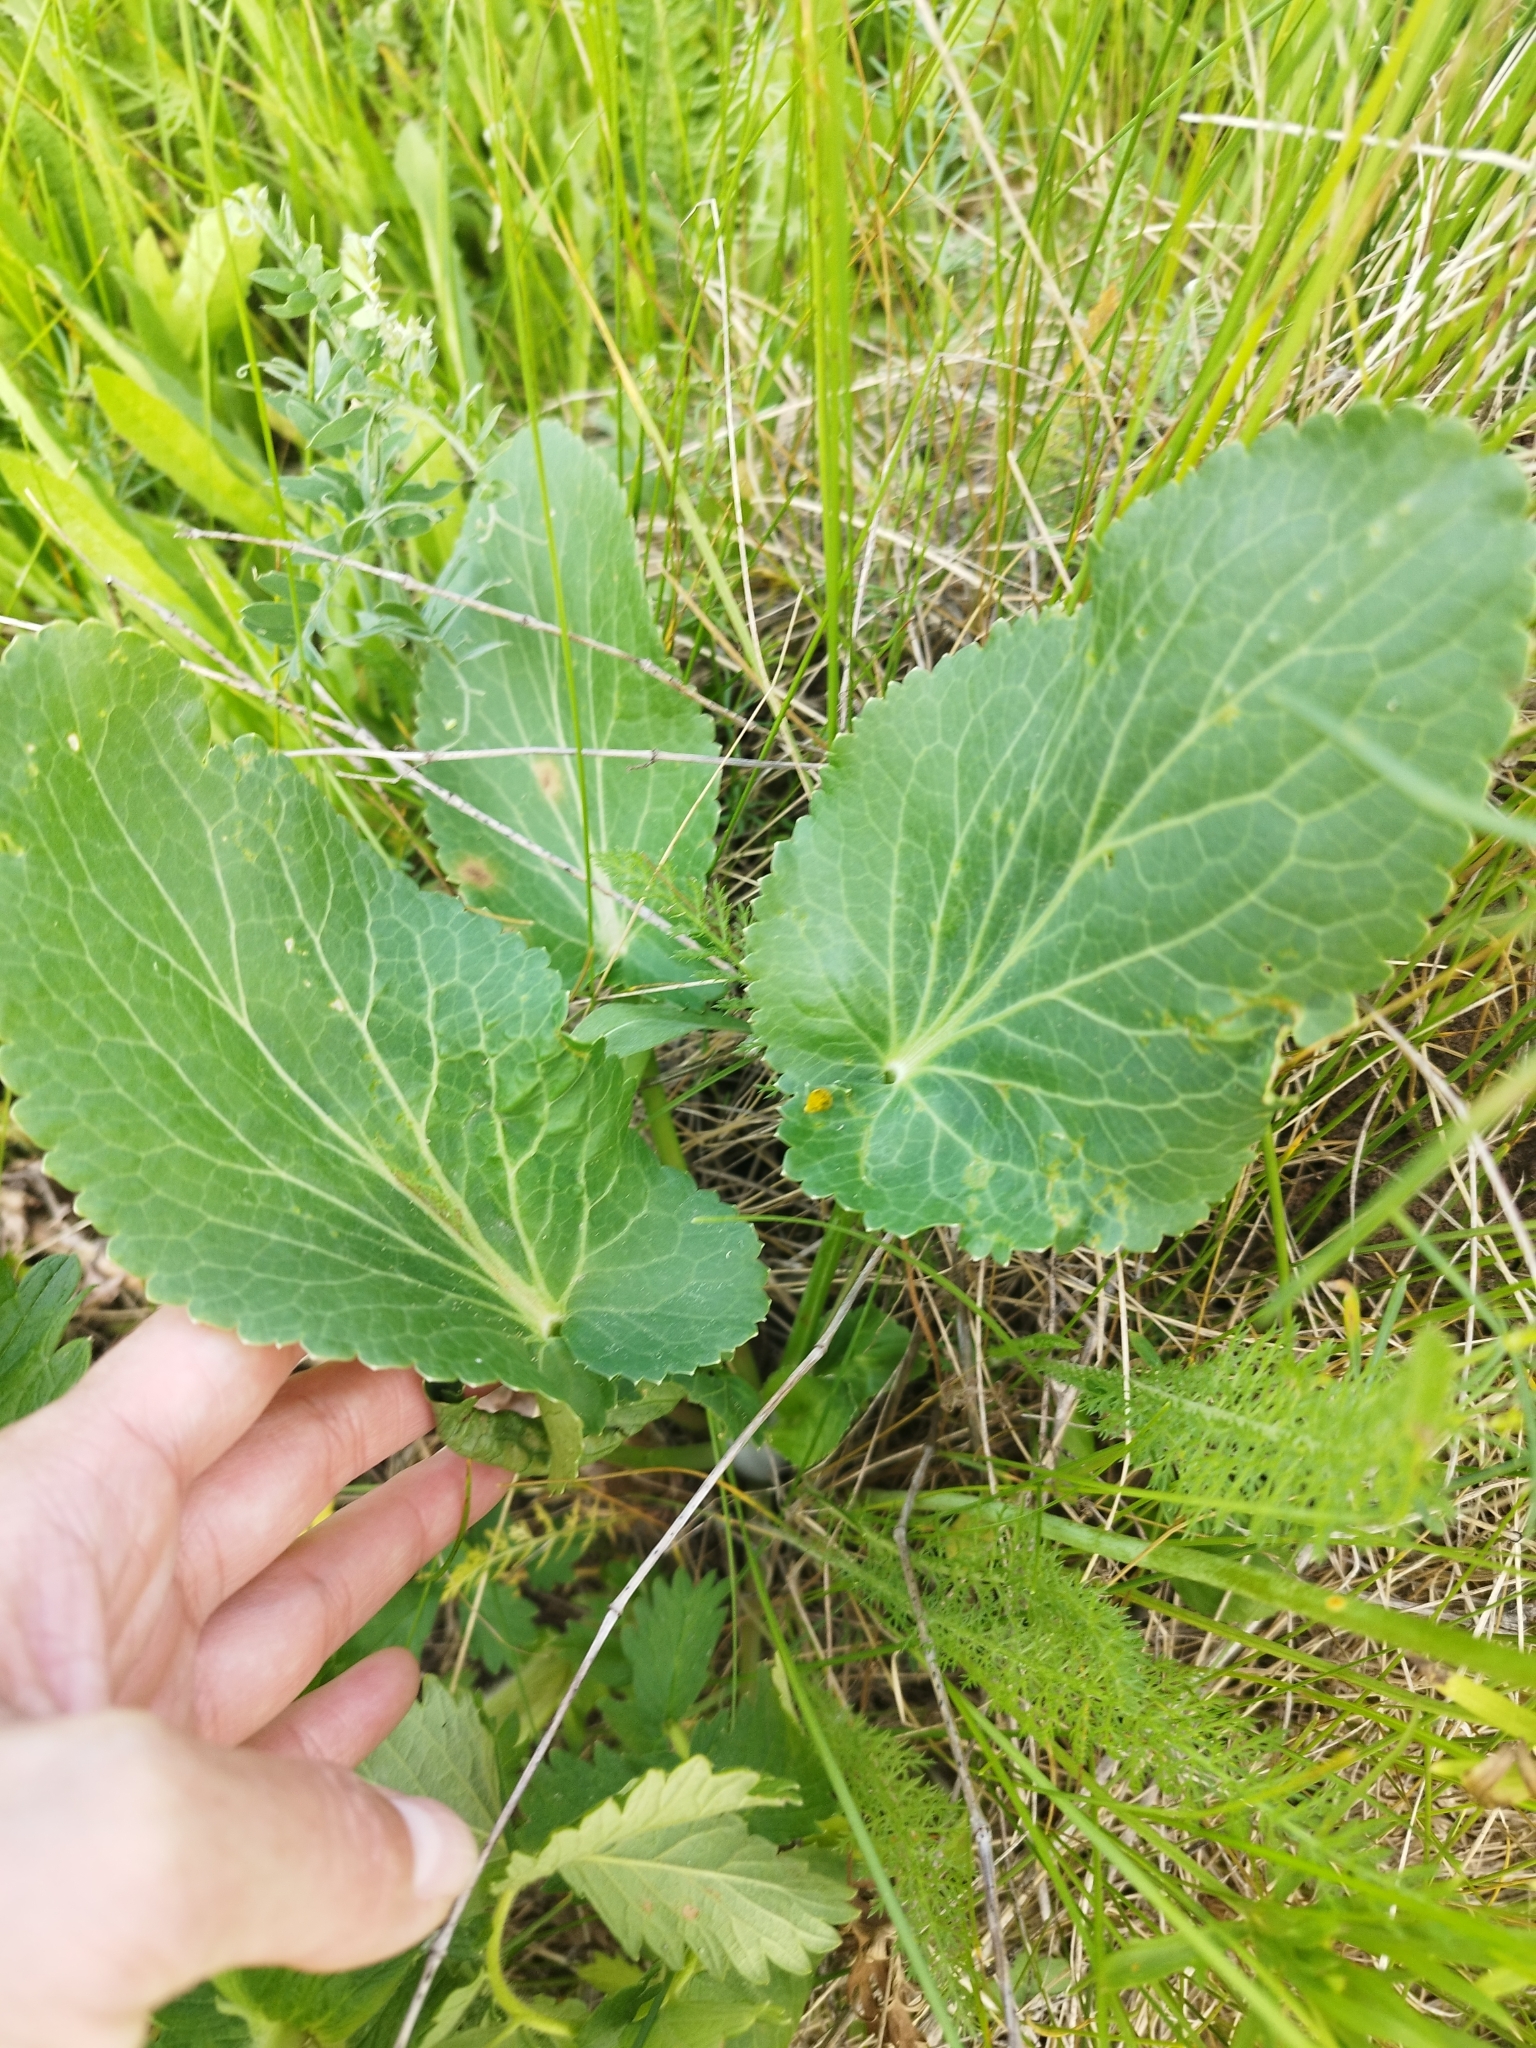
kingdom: Plantae
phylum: Tracheophyta
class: Magnoliopsida
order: Apiales
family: Apiaceae
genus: Eryngium
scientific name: Eryngium planum
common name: Blue eryngo
